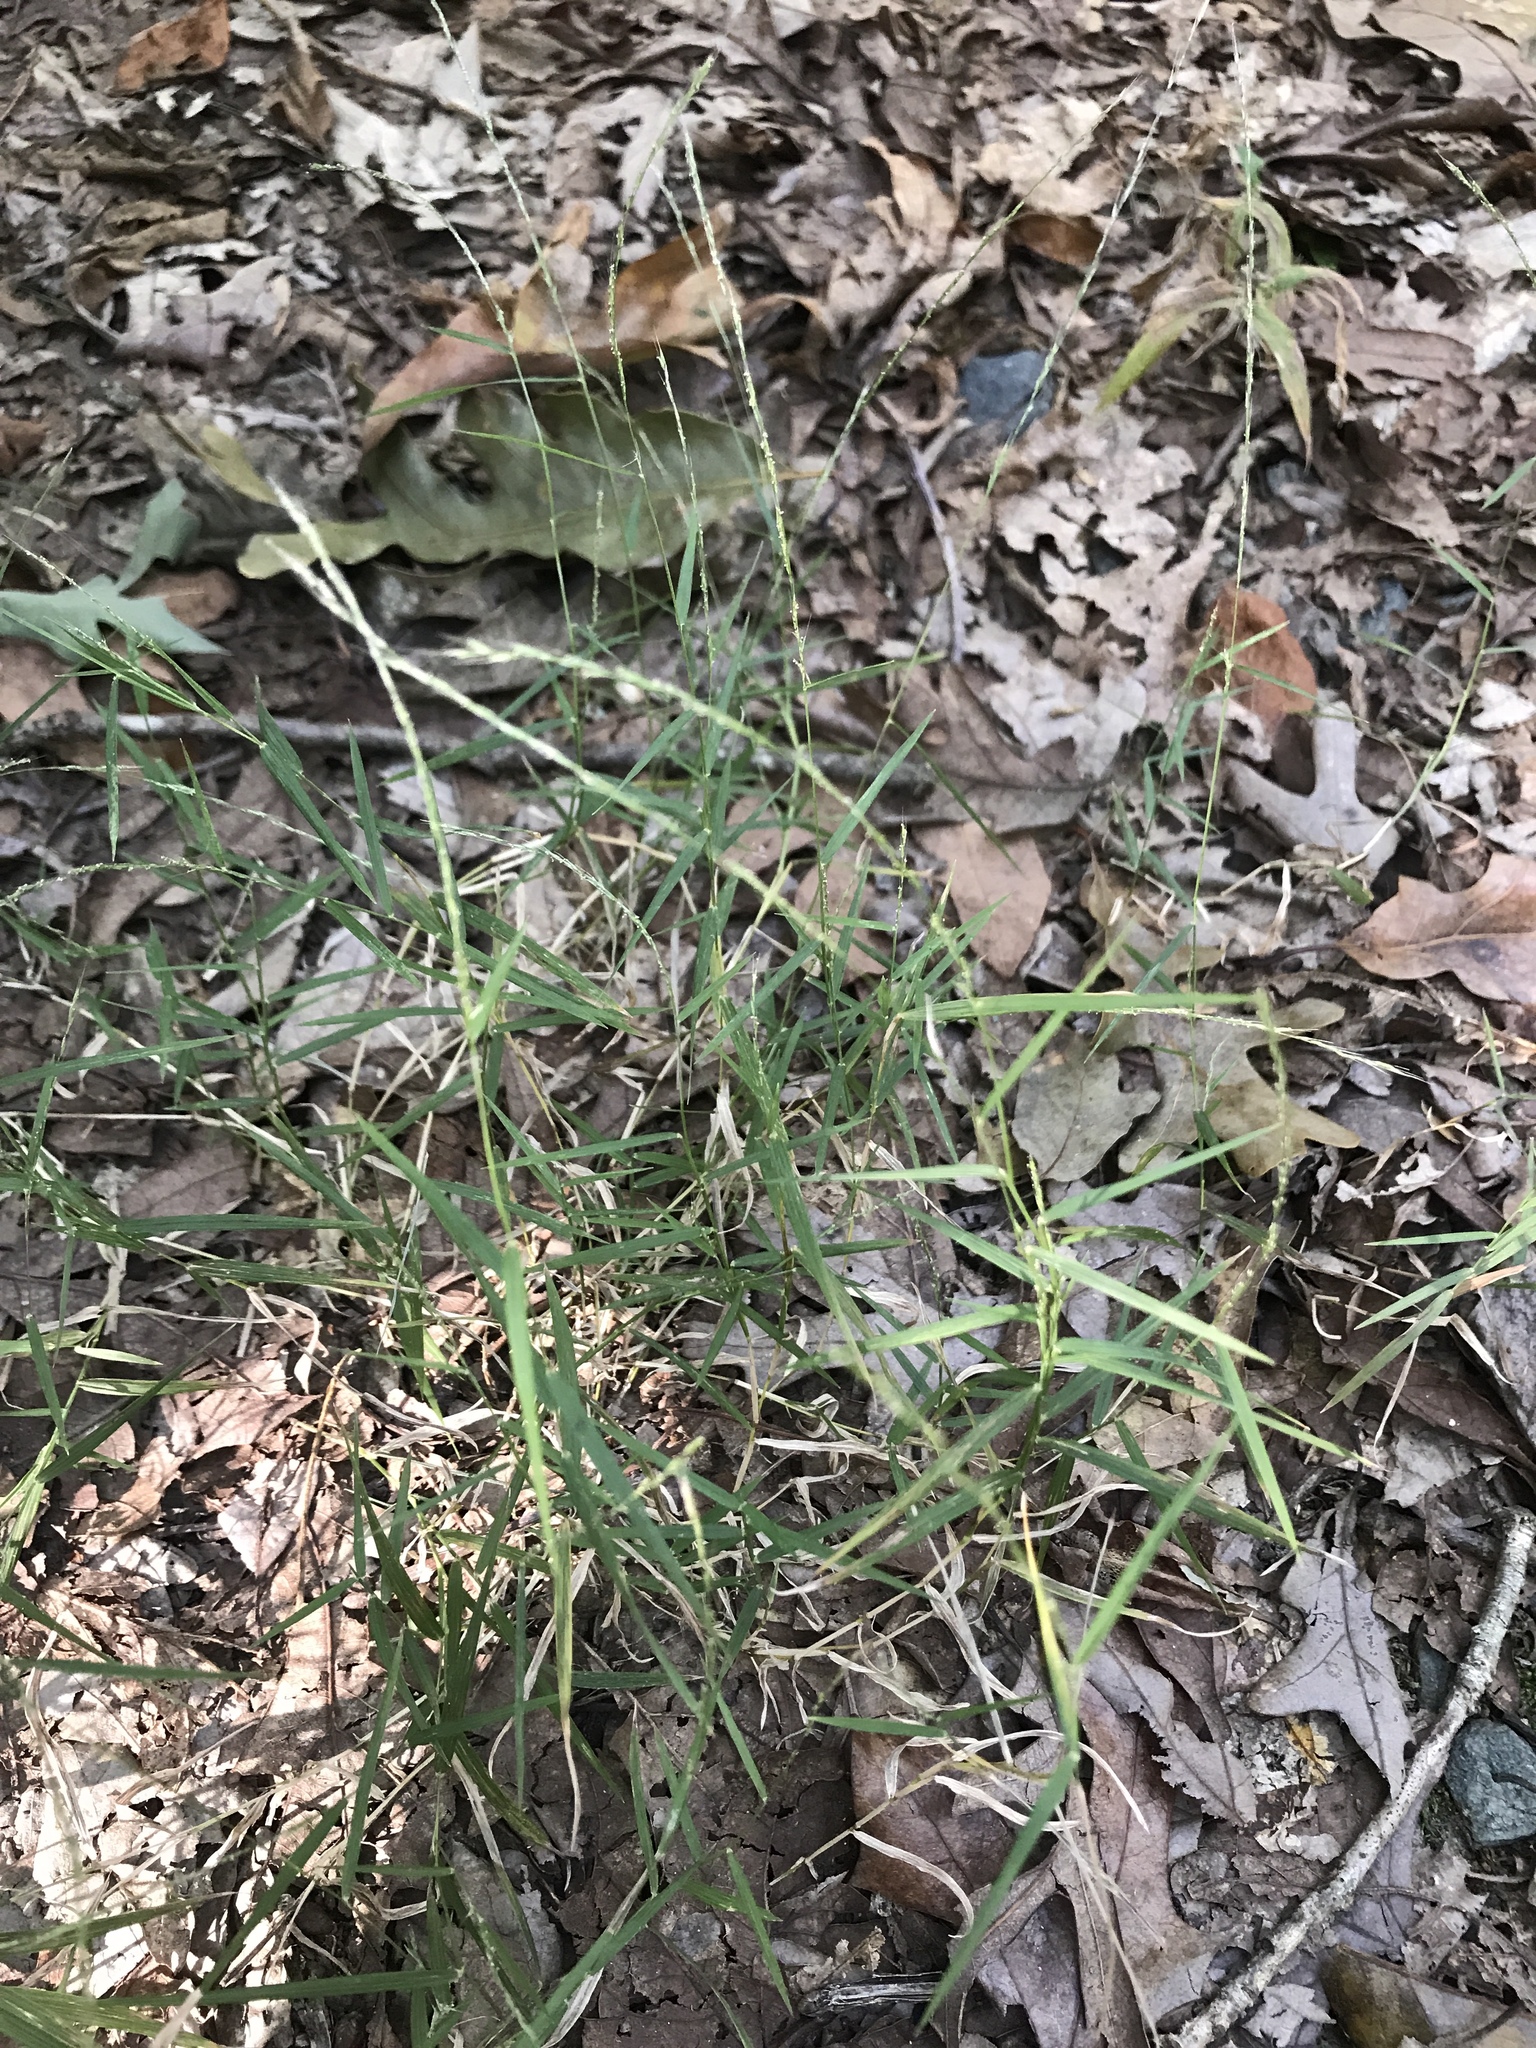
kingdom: Plantae
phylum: Tracheophyta
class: Liliopsida
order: Poales
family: Poaceae
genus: Muhlenbergia
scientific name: Muhlenbergia schreberi
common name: Nimblewill
